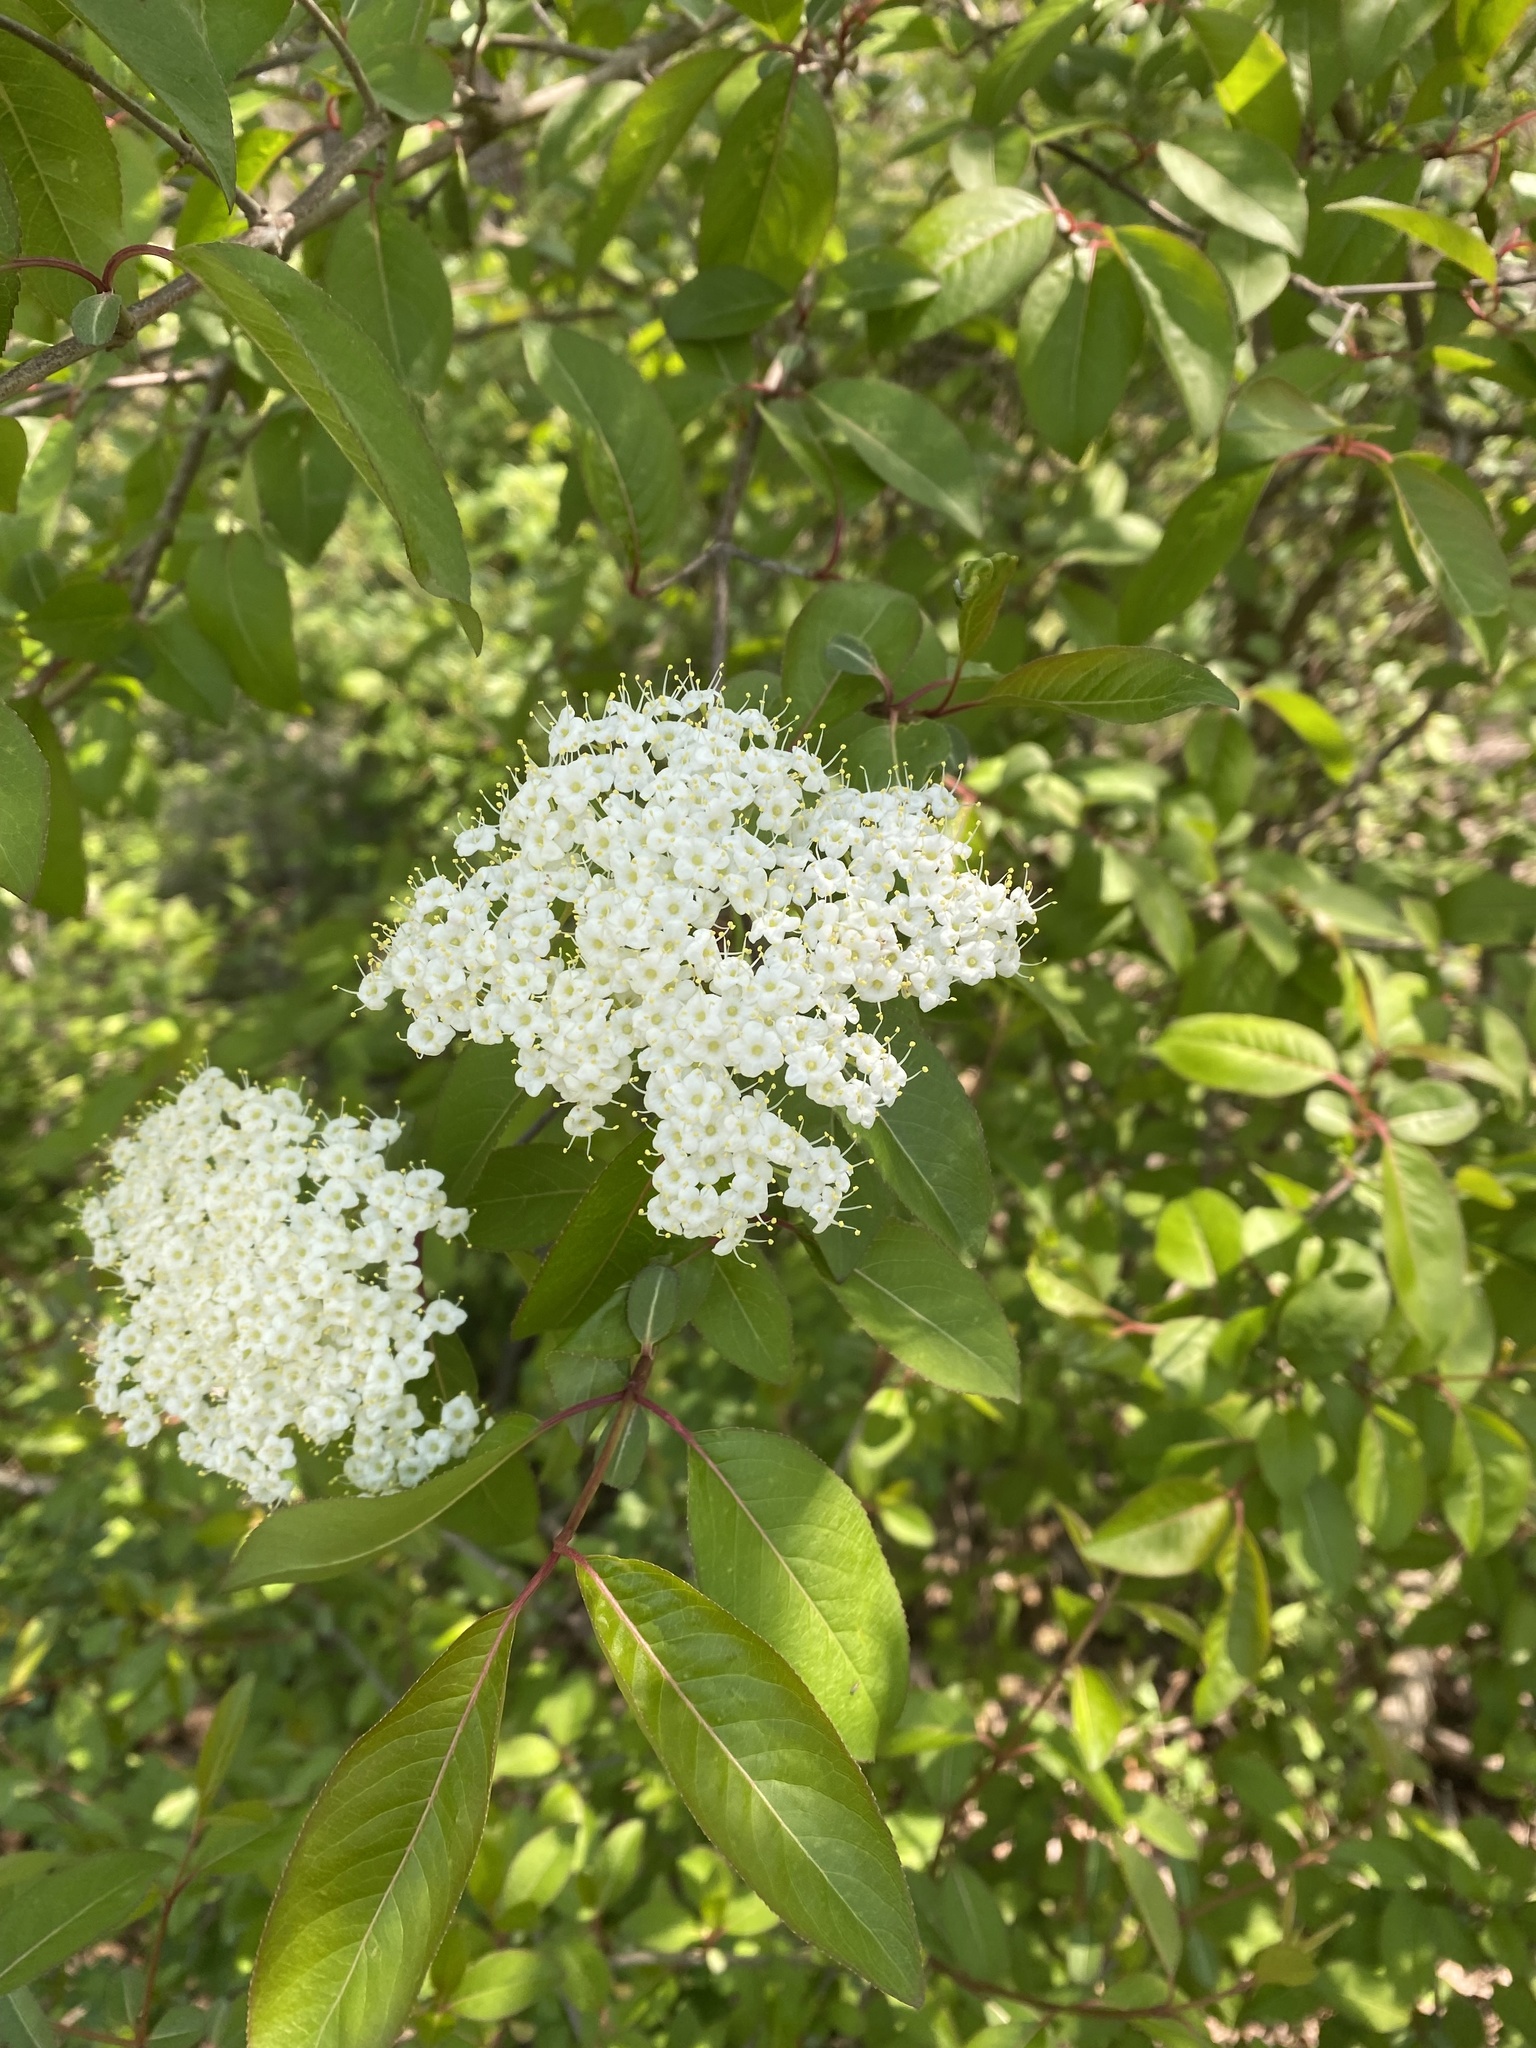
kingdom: Plantae
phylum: Tracheophyta
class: Magnoliopsida
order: Dipsacales
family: Viburnaceae
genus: Viburnum
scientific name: Viburnum prunifolium
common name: Black haw
